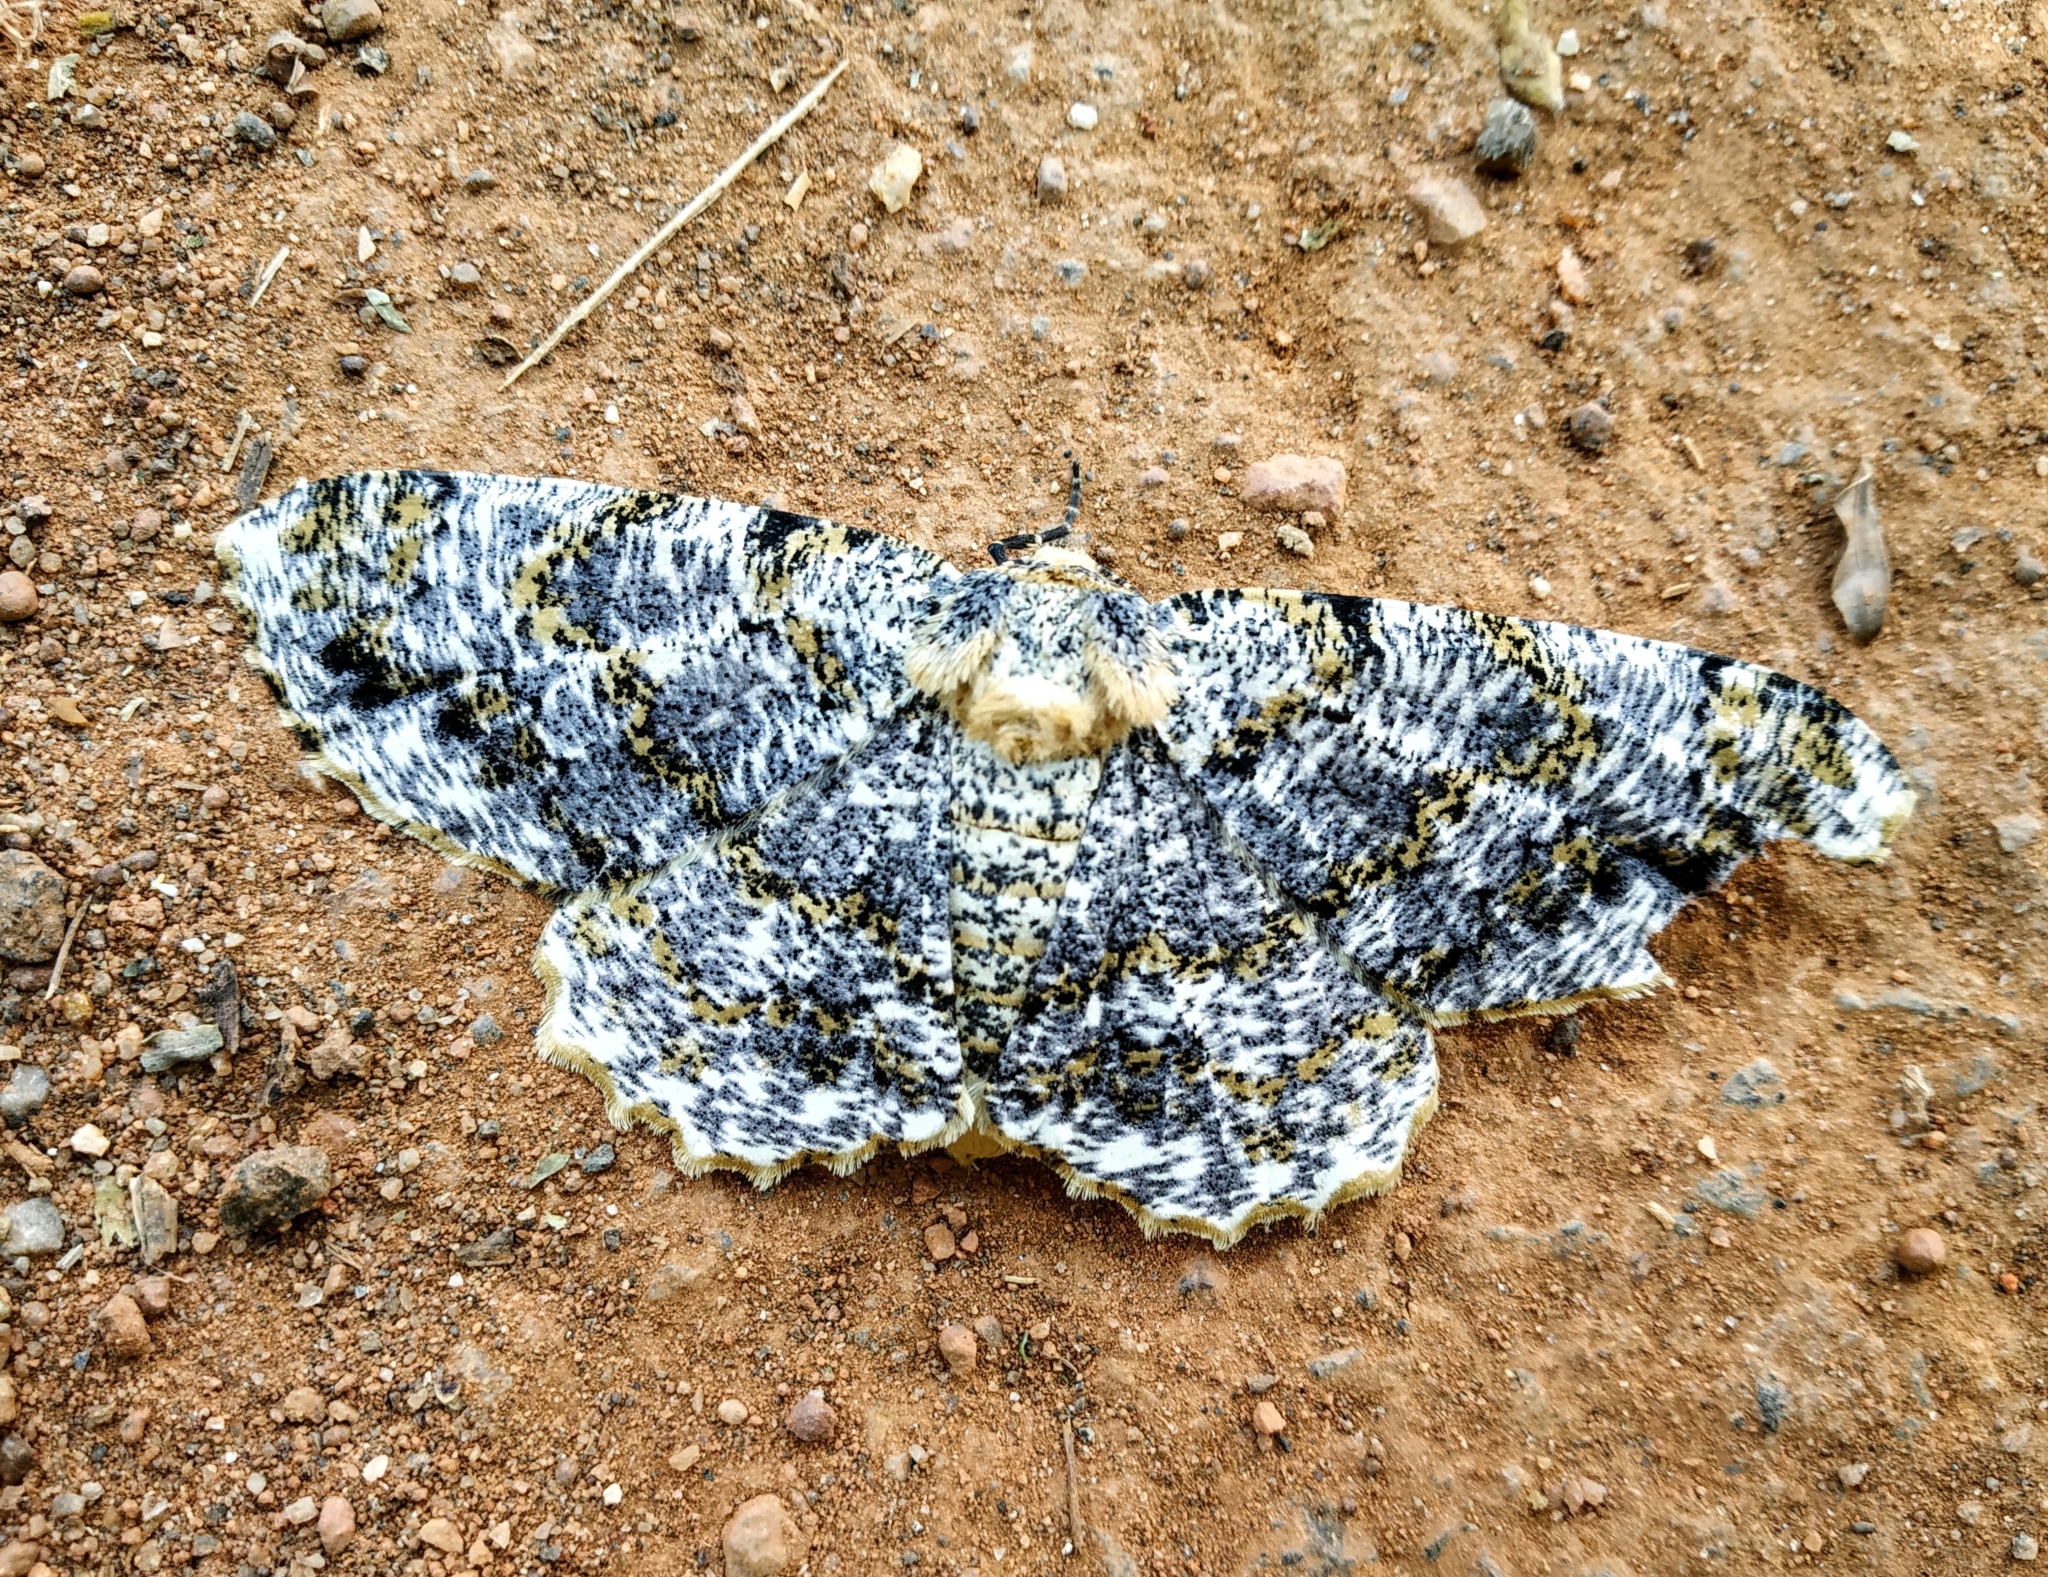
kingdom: Animalia
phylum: Arthropoda
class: Insecta
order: Lepidoptera
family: Geometridae
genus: Biston
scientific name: Biston suppressaria
